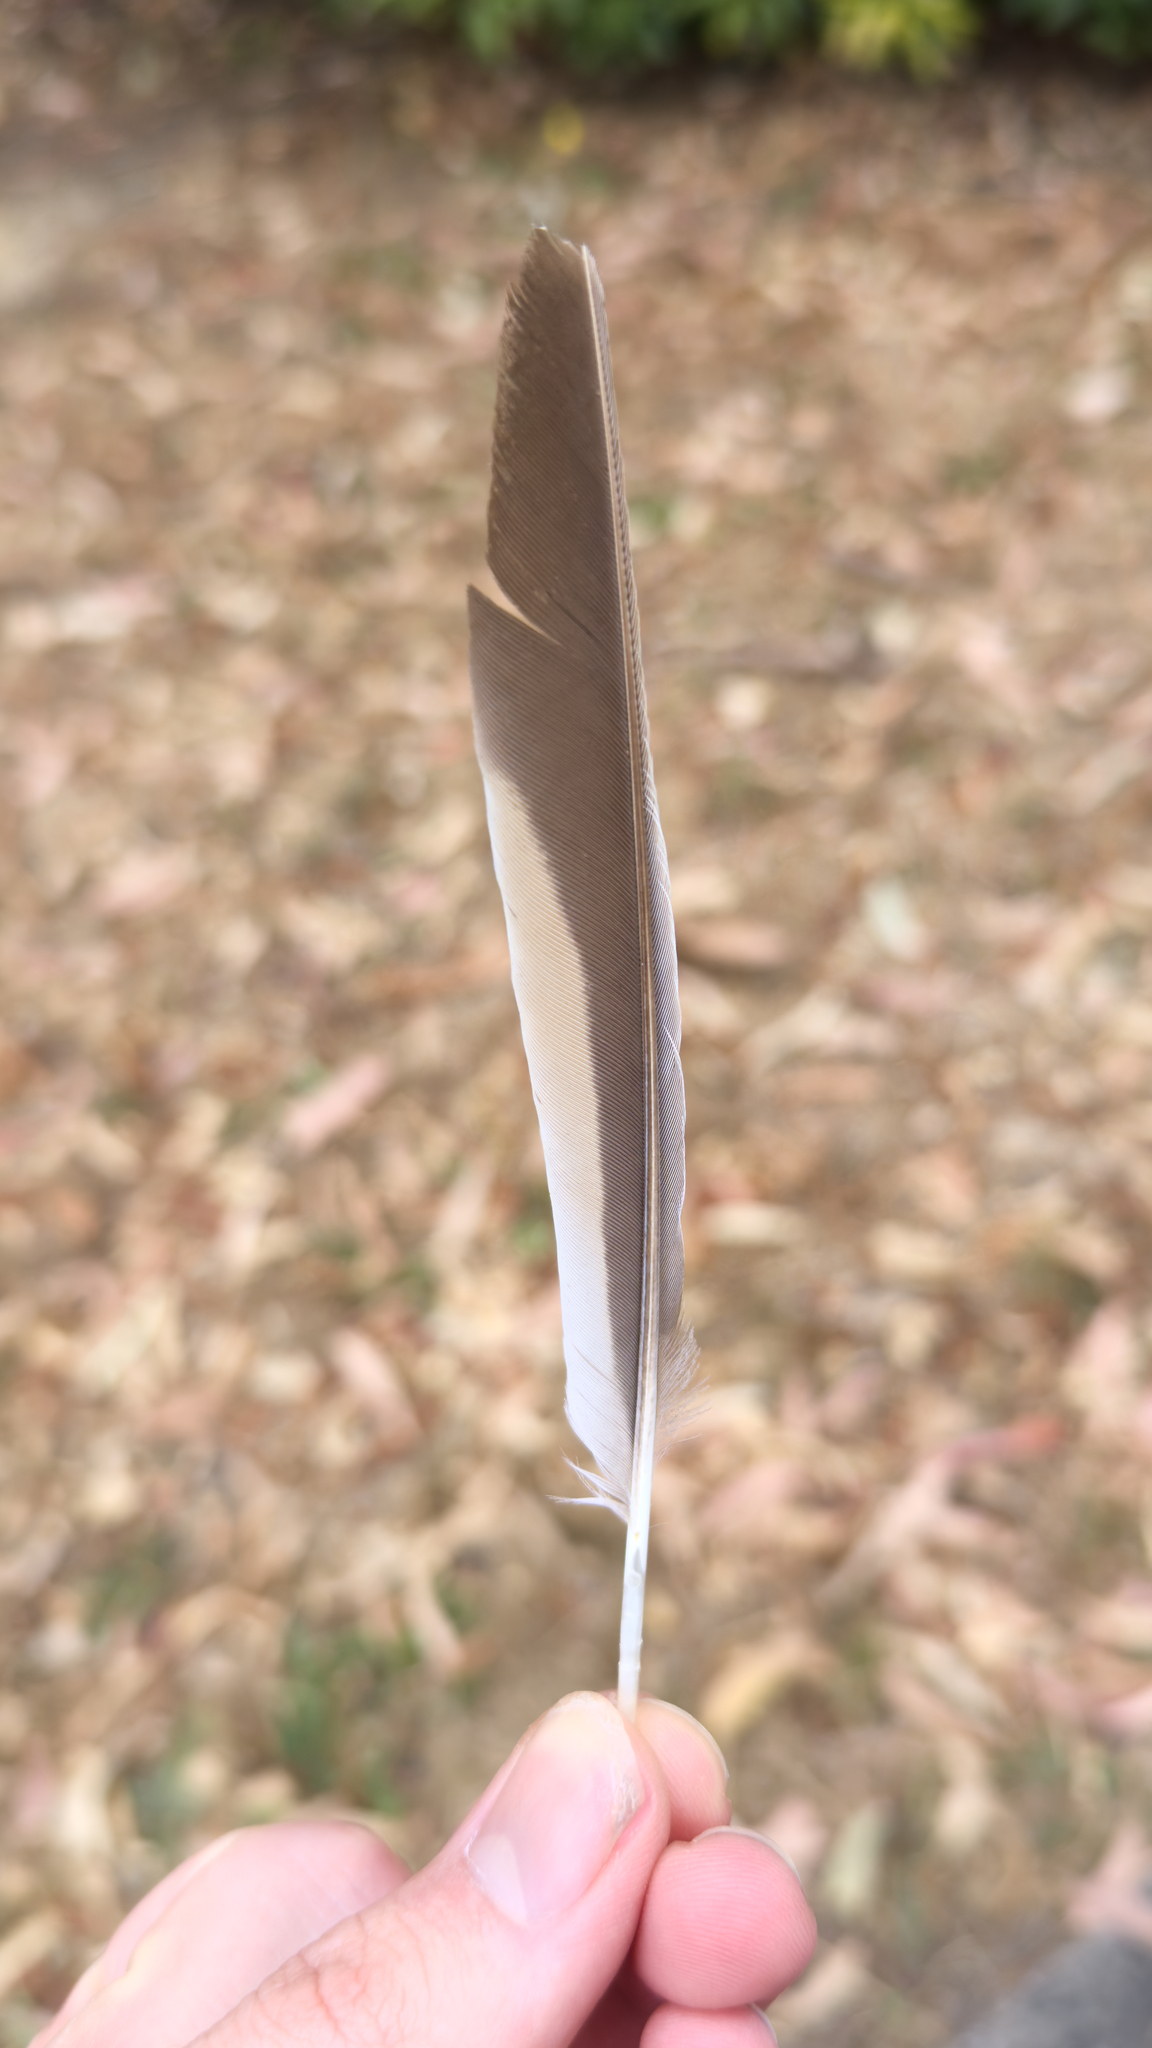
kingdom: Animalia
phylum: Chordata
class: Aves
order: Passeriformes
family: Meliphagidae
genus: Anthochaera
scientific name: Anthochaera carunculata
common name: Red wattlebird
